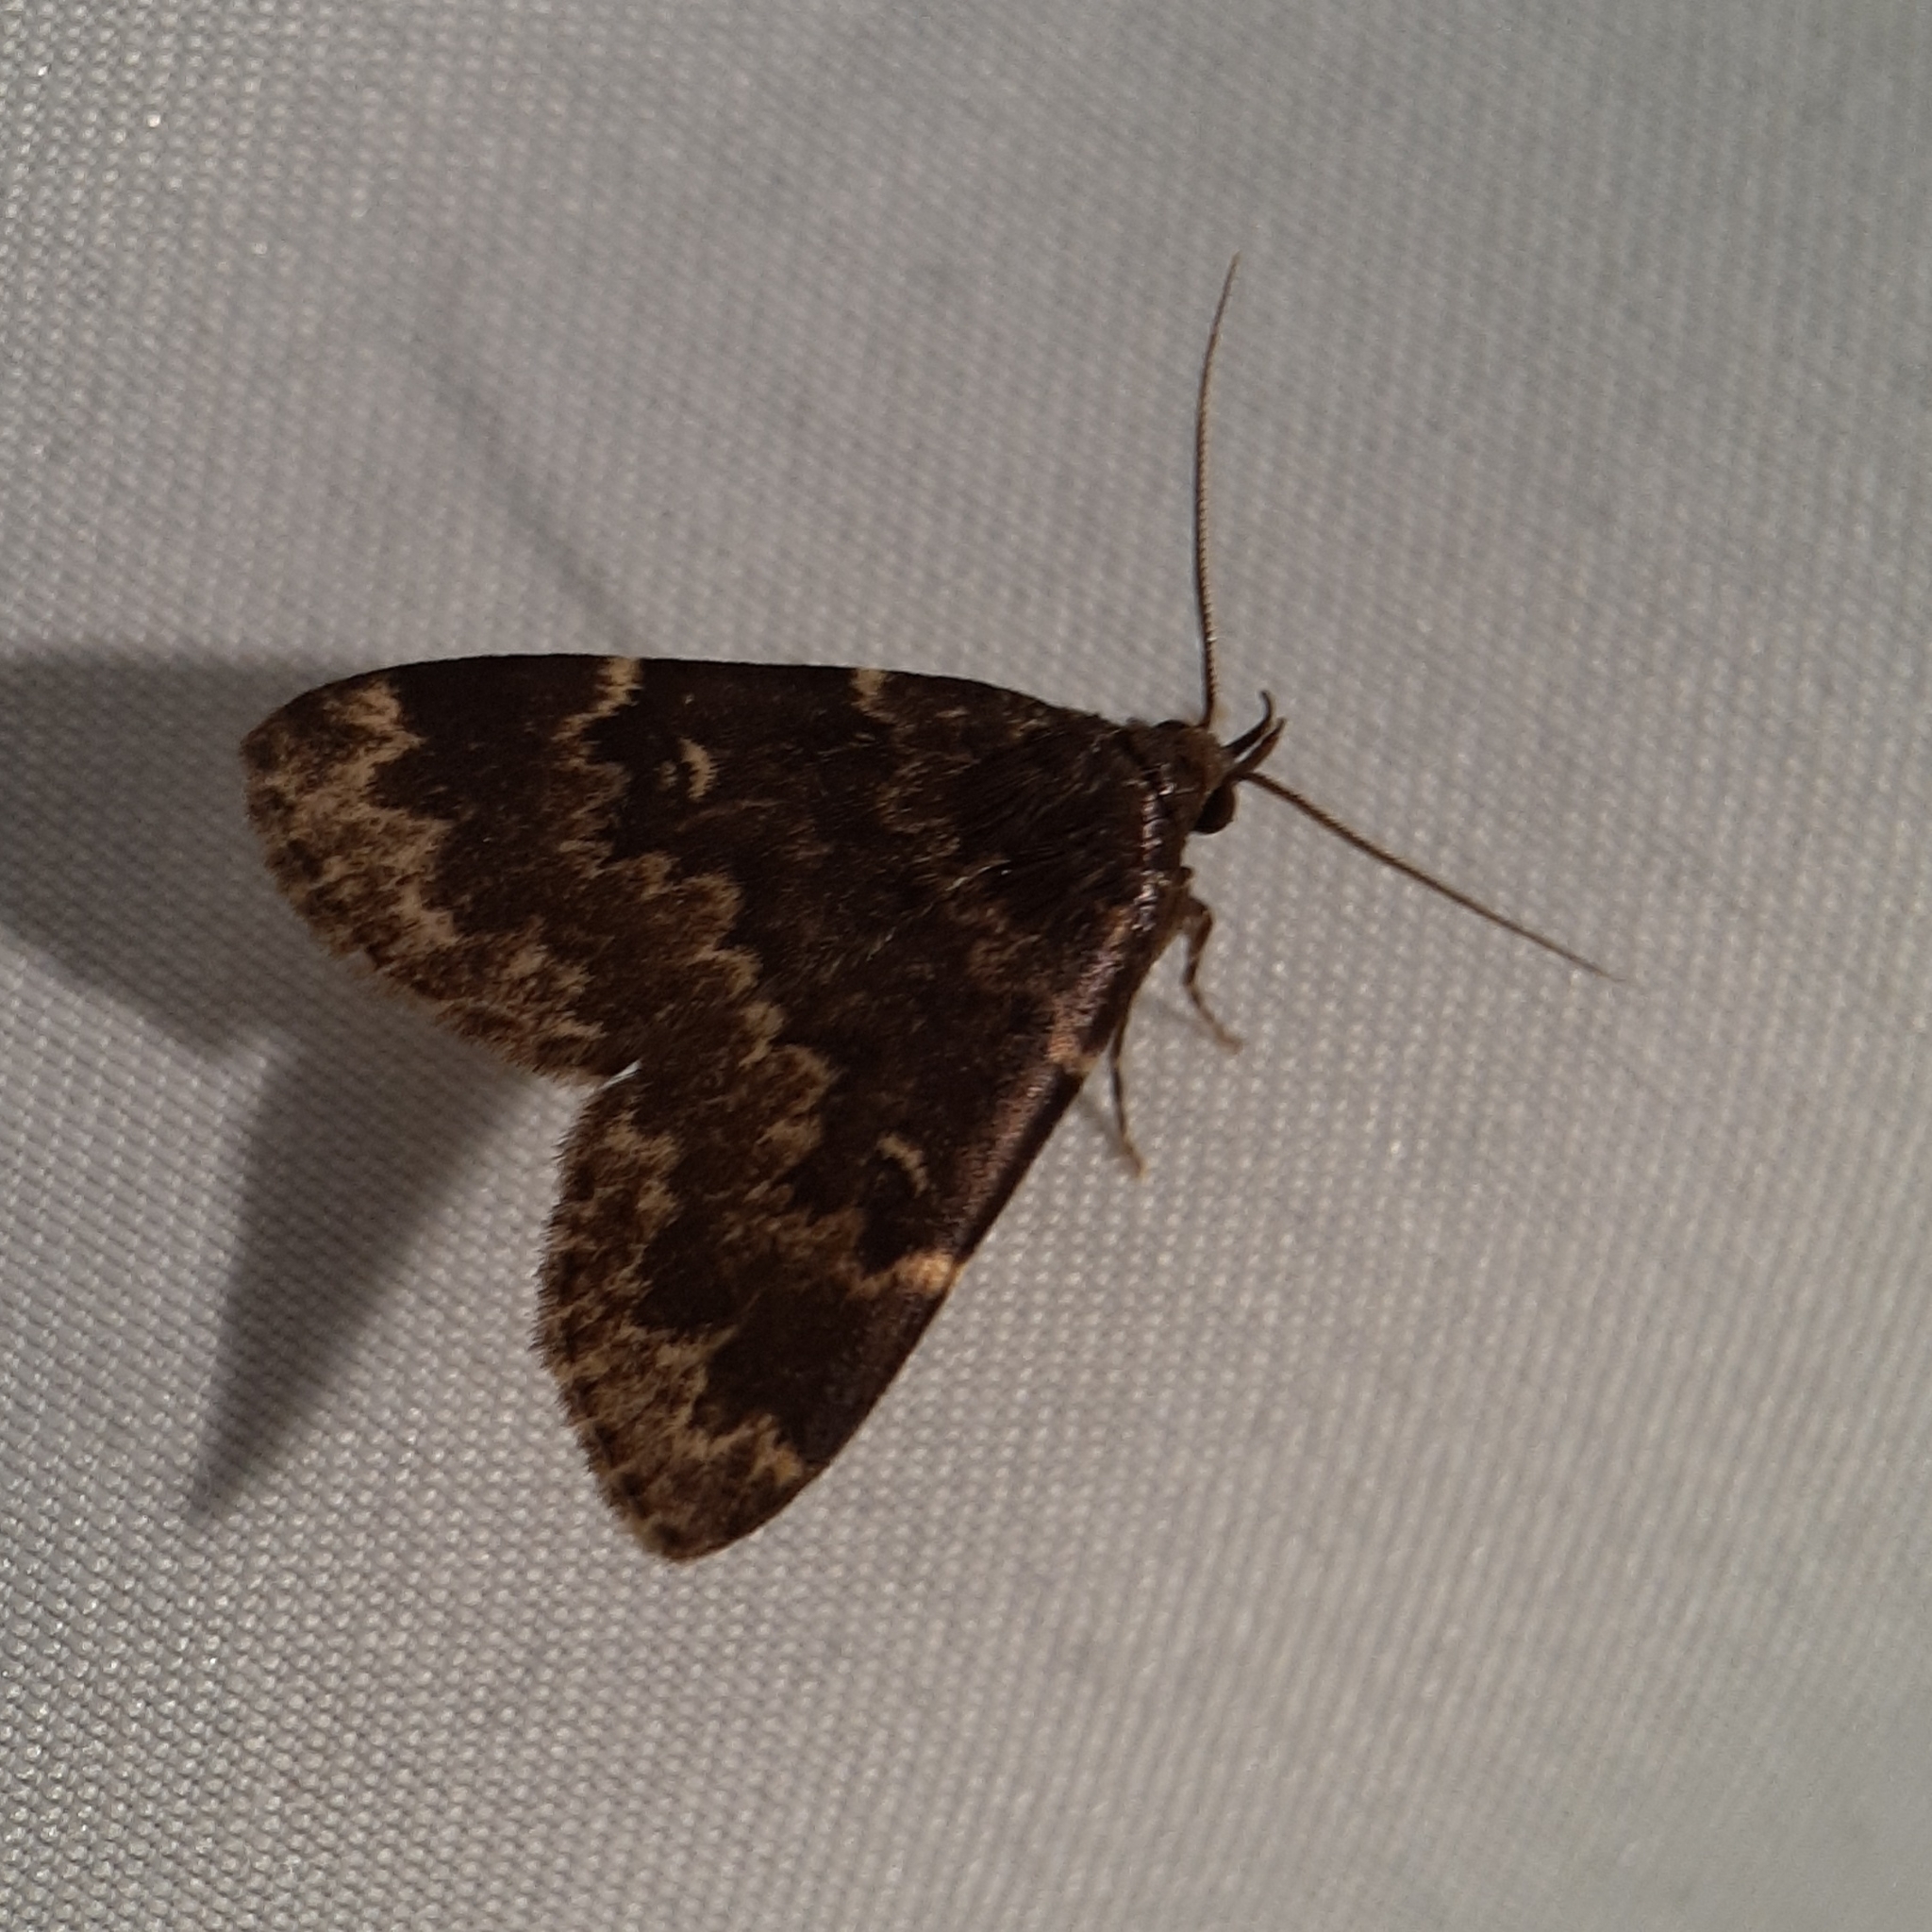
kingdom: Animalia
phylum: Arthropoda
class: Insecta
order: Lepidoptera
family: Erebidae
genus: Idia
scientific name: Idia lubricalis
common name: Twin-striped tabby
